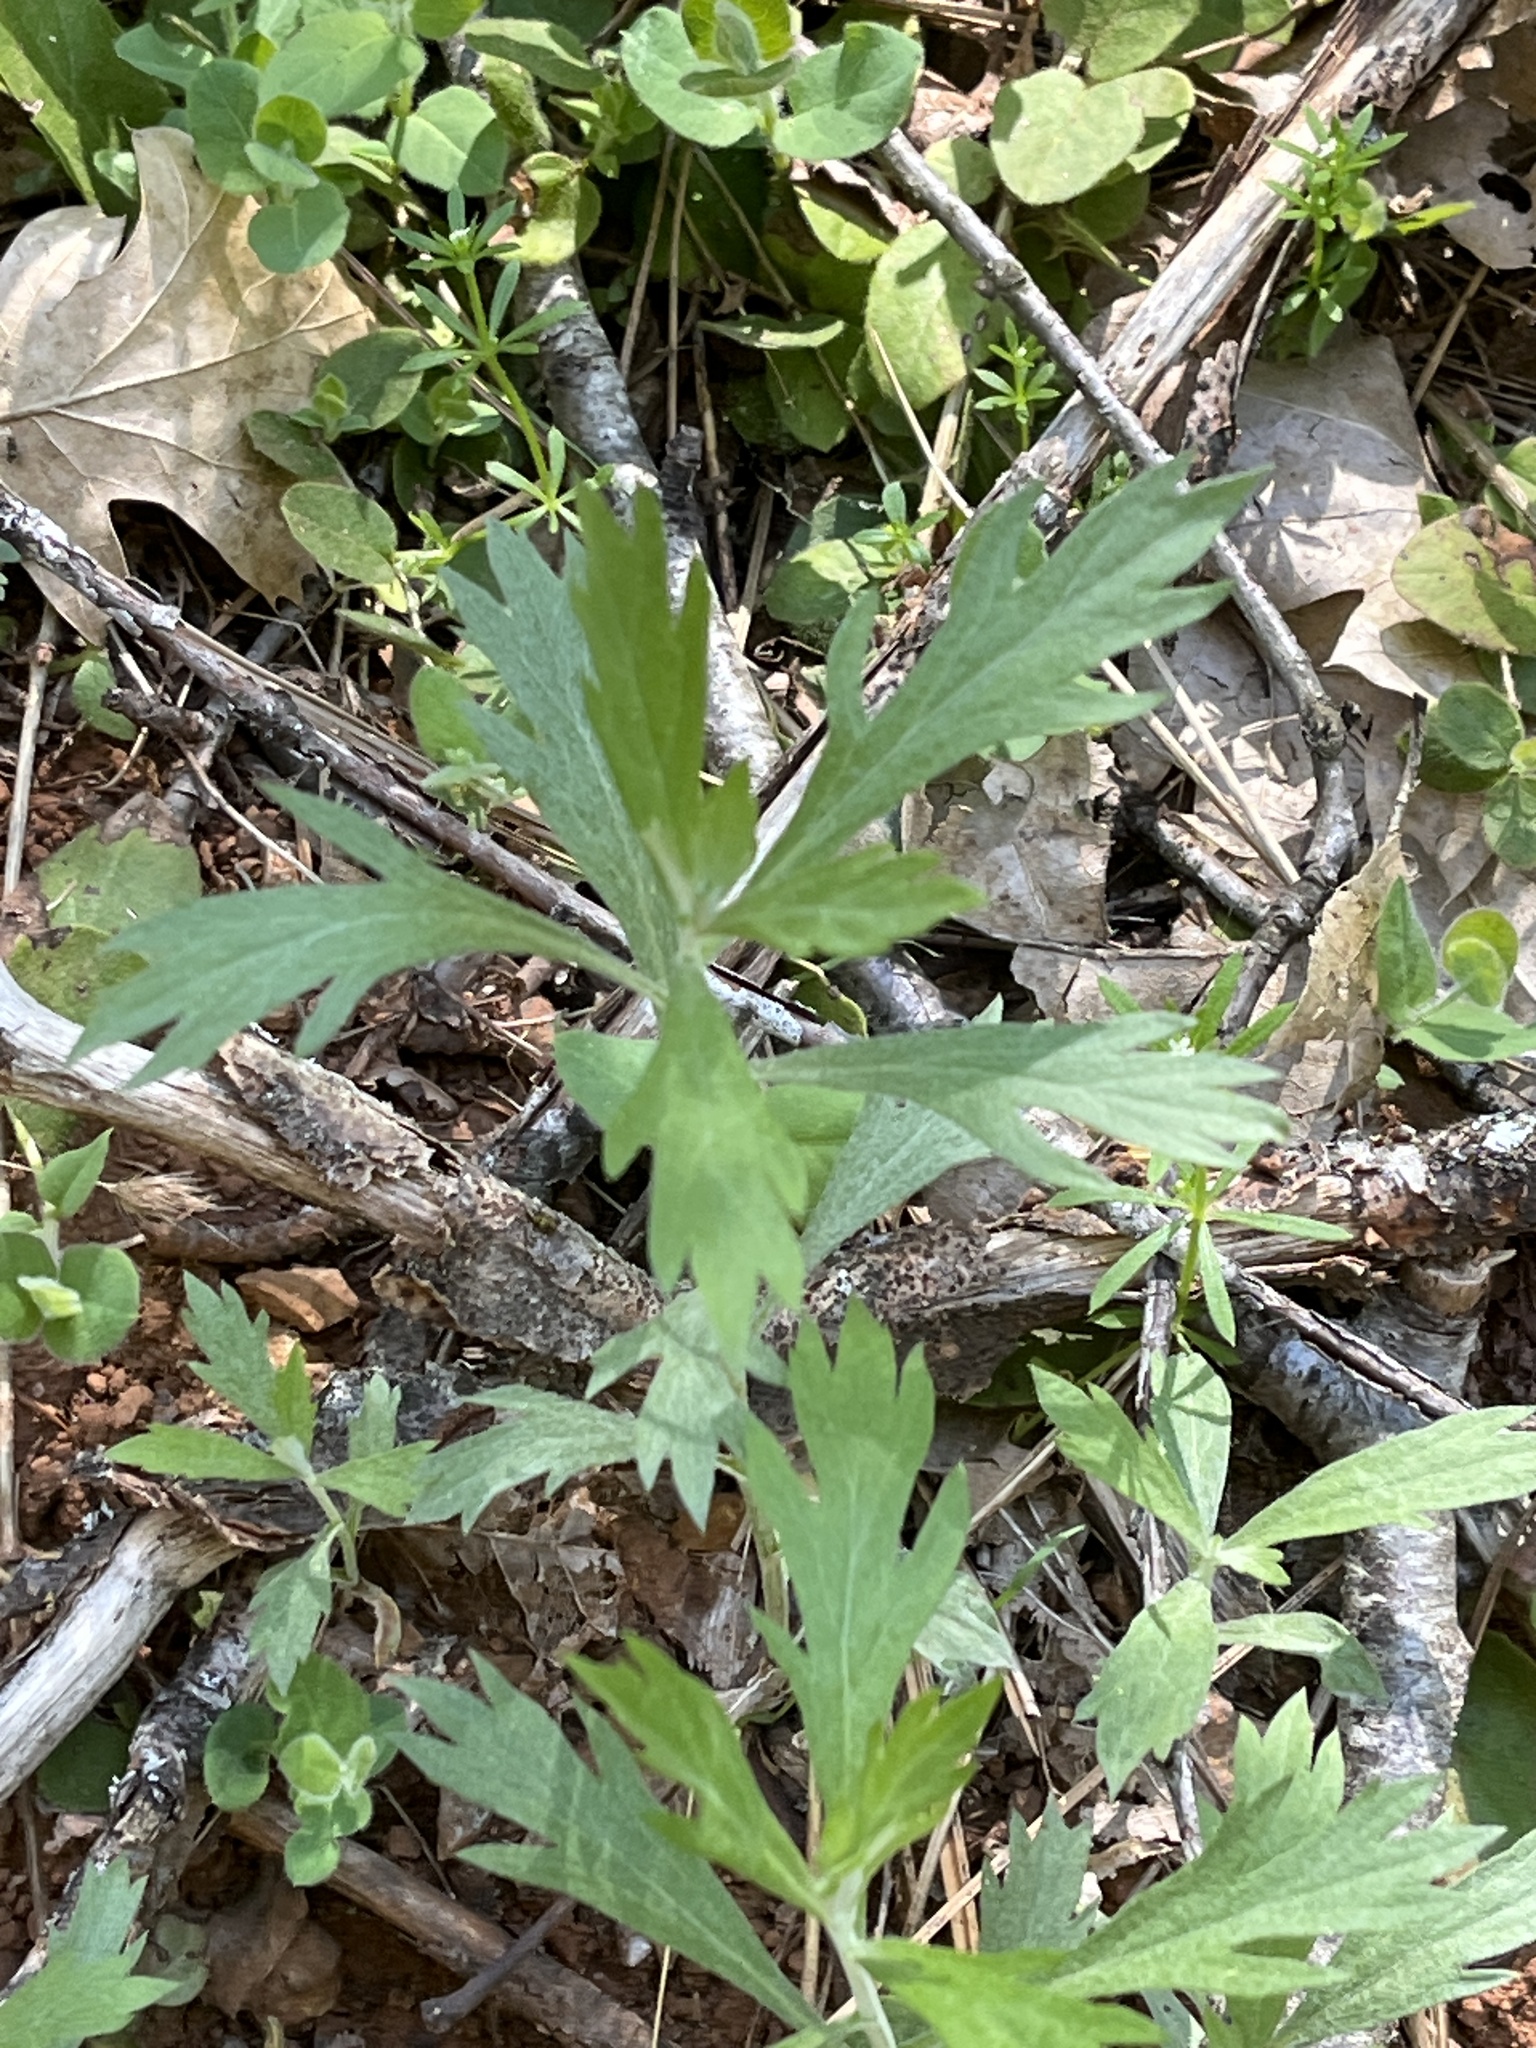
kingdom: Plantae
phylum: Tracheophyta
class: Magnoliopsida
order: Asterales
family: Asteraceae
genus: Artemisia
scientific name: Artemisia douglasiana
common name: Northwest mugwort
